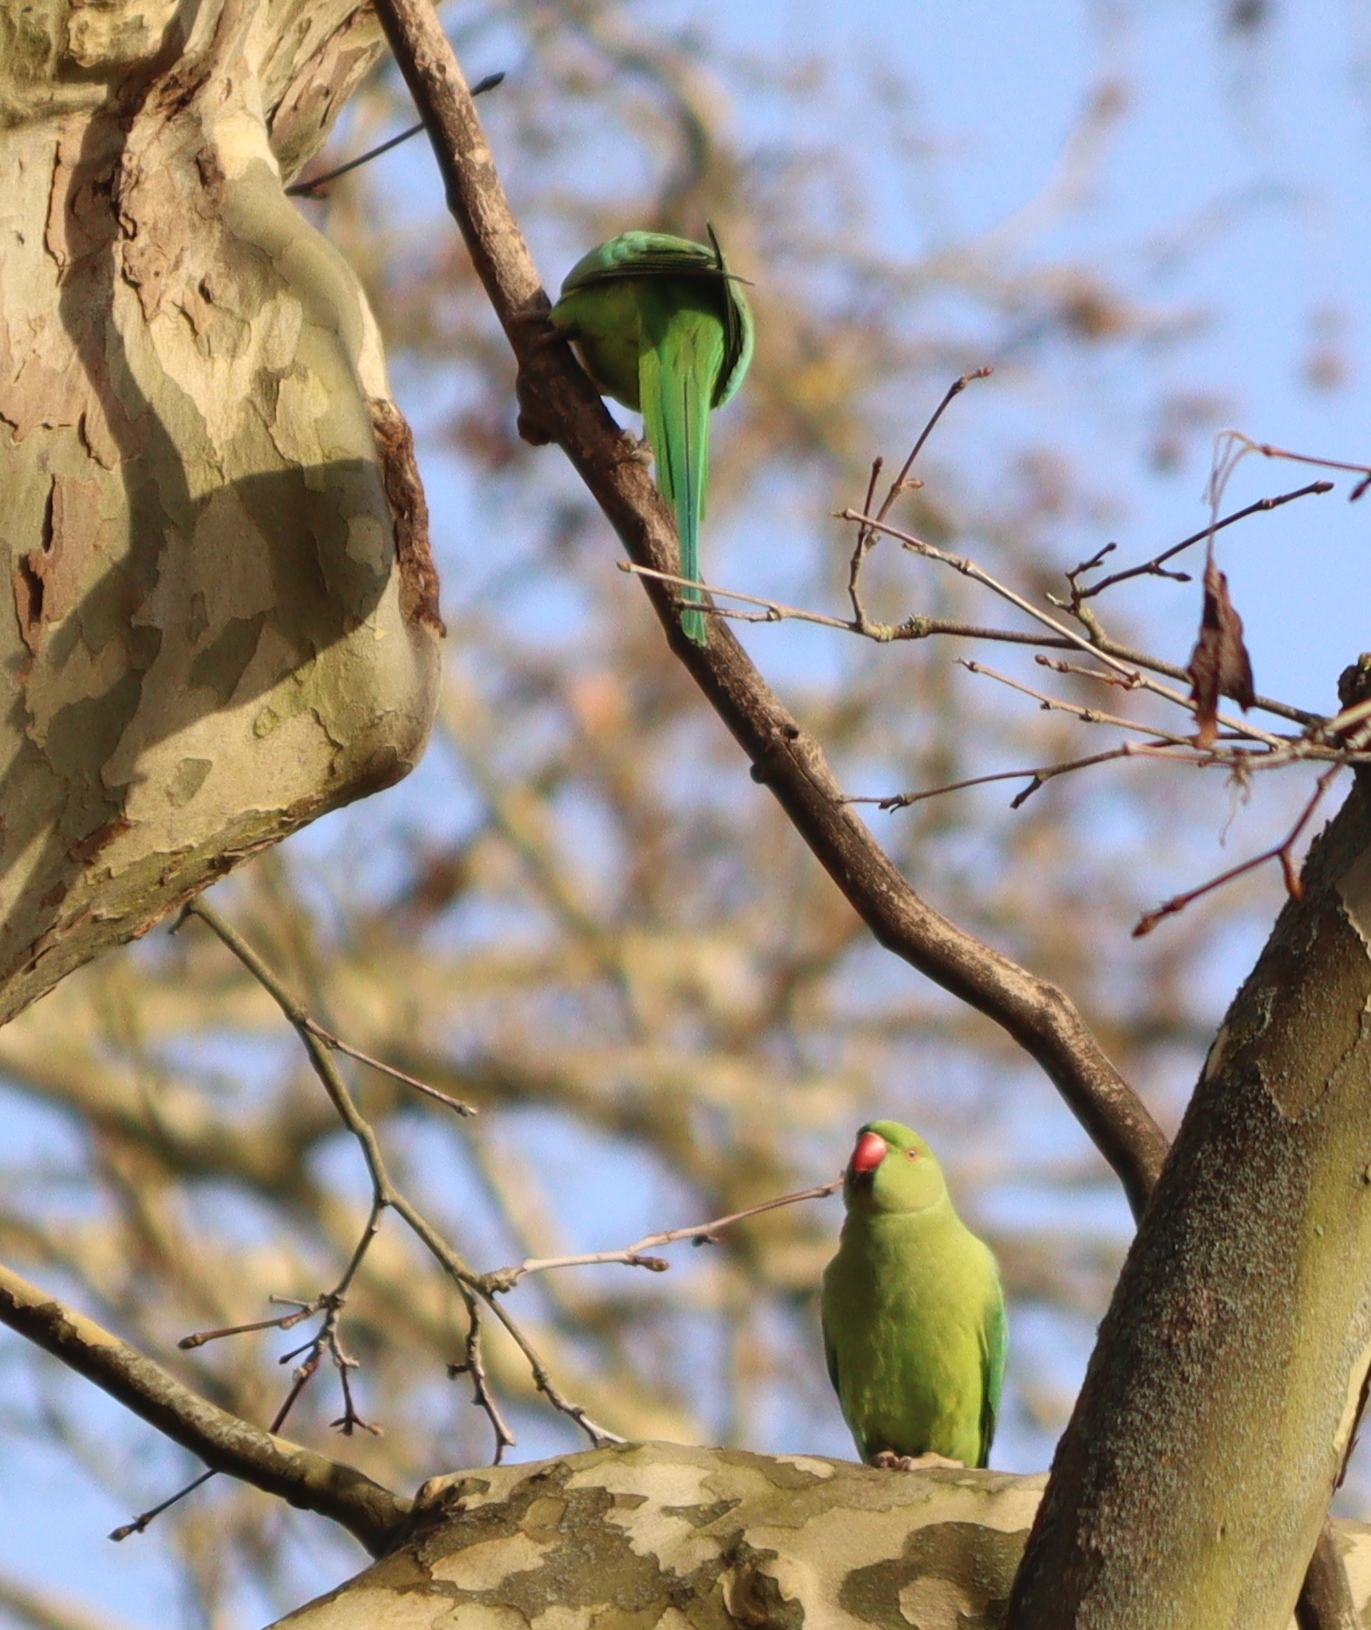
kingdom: Animalia
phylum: Chordata
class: Aves
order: Psittaciformes
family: Psittacidae
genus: Psittacula
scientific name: Psittacula krameri
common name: Rose-ringed parakeet
